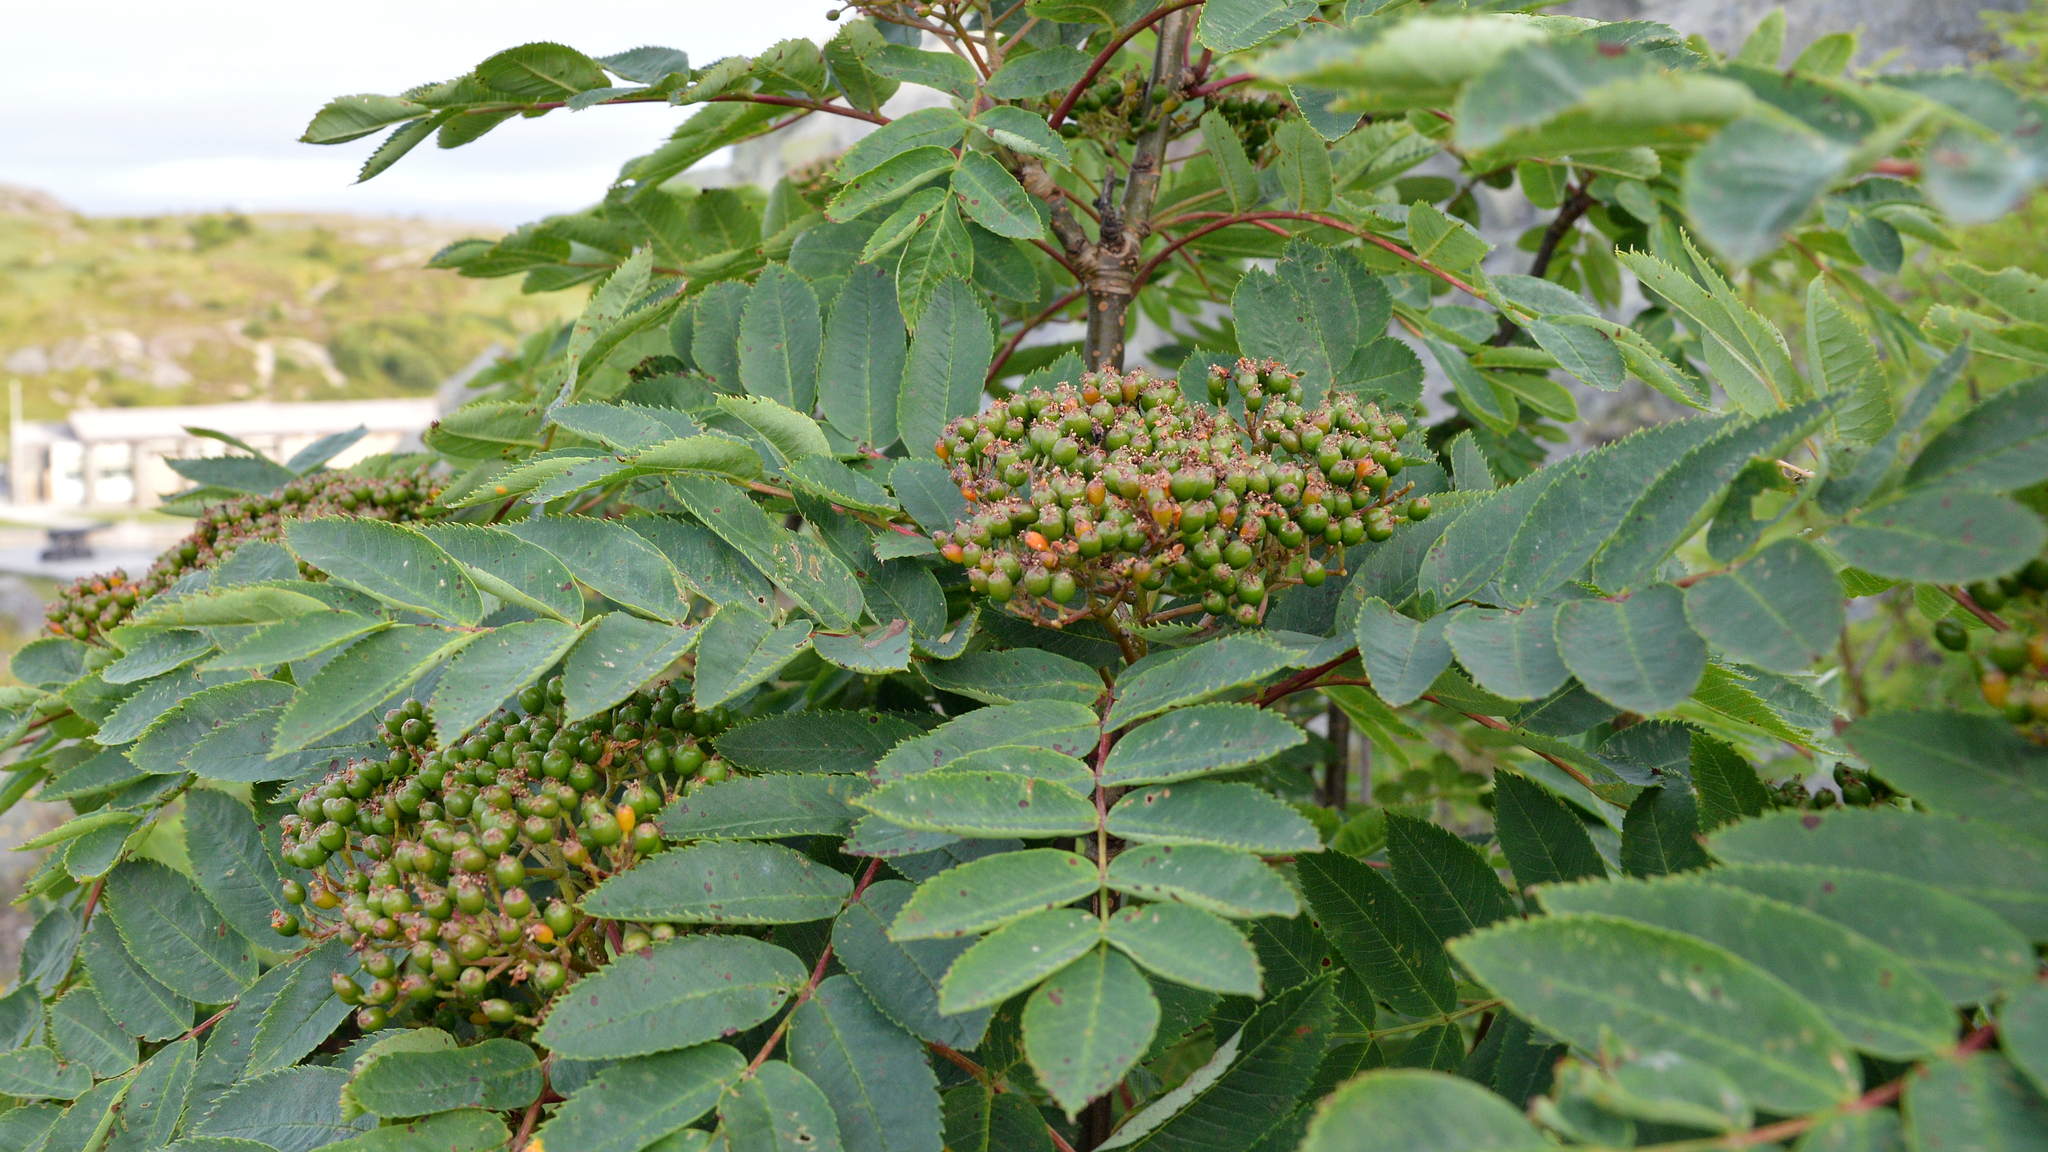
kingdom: Plantae
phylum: Tracheophyta
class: Magnoliopsida
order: Rosales
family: Rosaceae
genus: Sorbus
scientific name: Sorbus decora
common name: Northern mountain-ash
